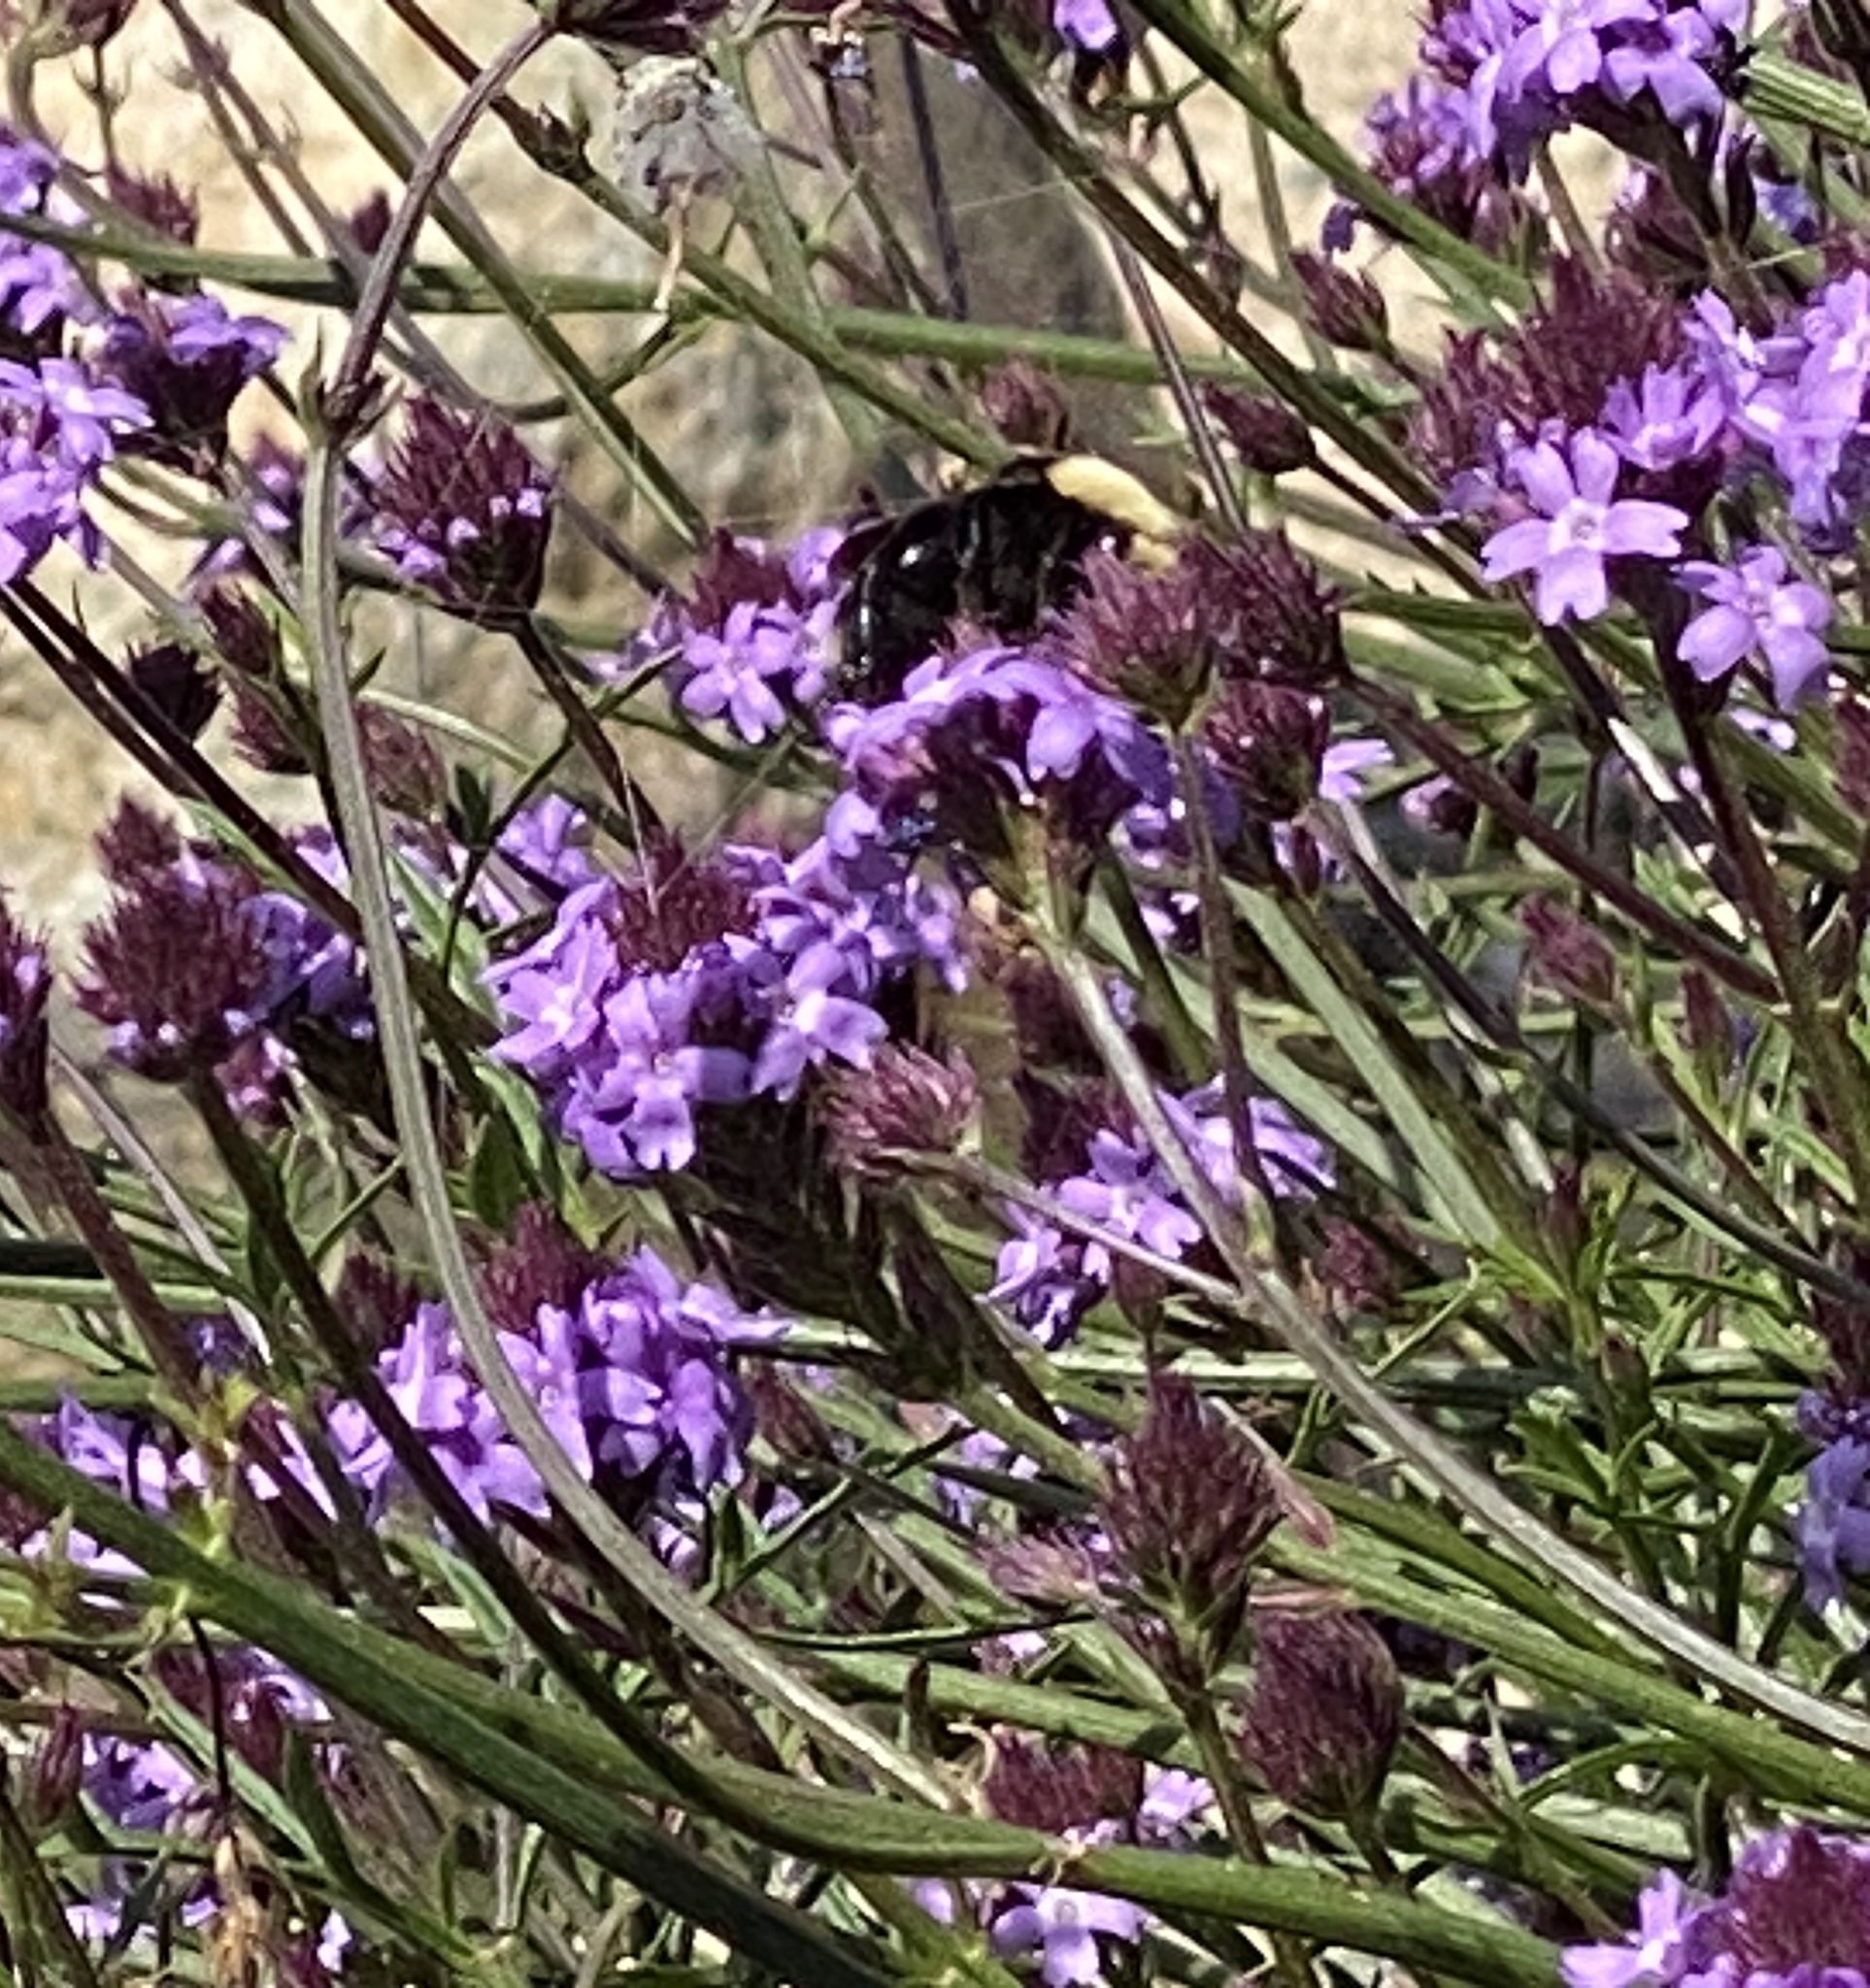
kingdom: Animalia
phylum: Arthropoda
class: Insecta
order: Hymenoptera
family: Apidae
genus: Bombus
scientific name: Bombus vosnesenskii
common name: Vosnesensky bumble bee
